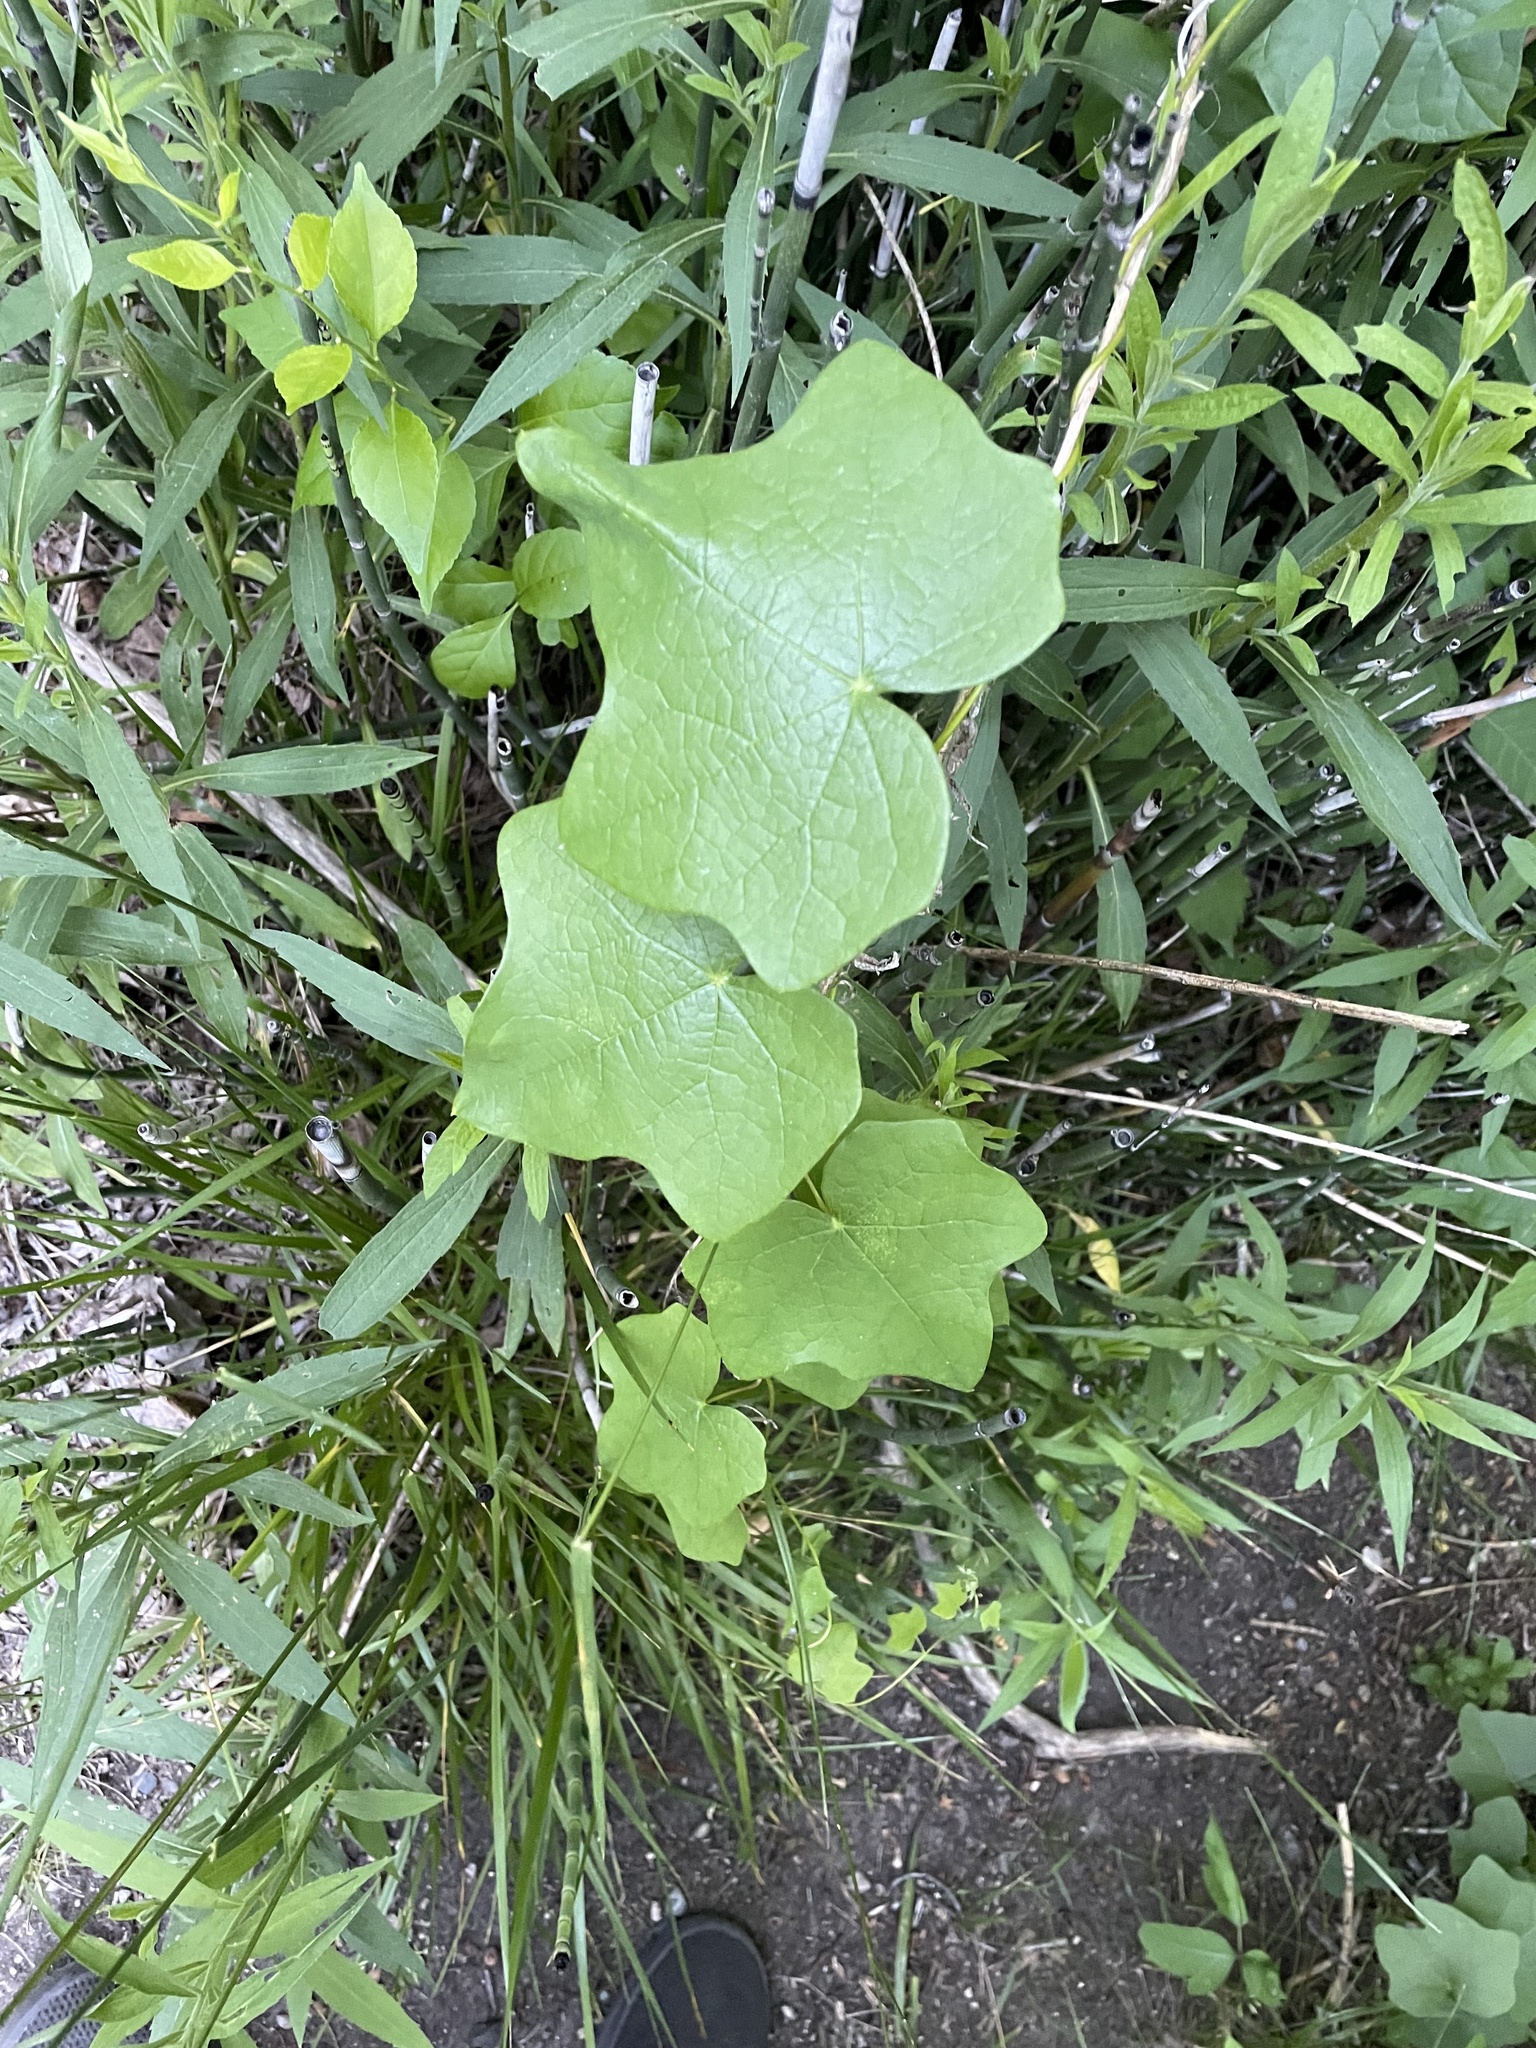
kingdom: Plantae
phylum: Tracheophyta
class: Magnoliopsida
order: Ranunculales
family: Menispermaceae
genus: Menispermum
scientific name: Menispermum canadense
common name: Moonseed
